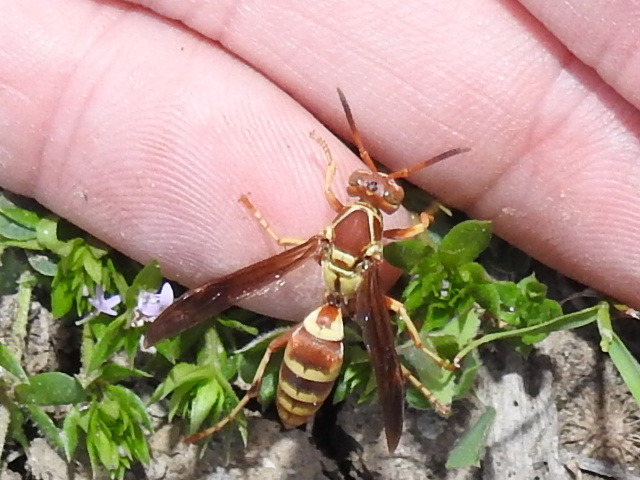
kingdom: Animalia
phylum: Arthropoda
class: Insecta
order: Hymenoptera
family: Eumenidae
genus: Polistes
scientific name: Polistes dorsalis
